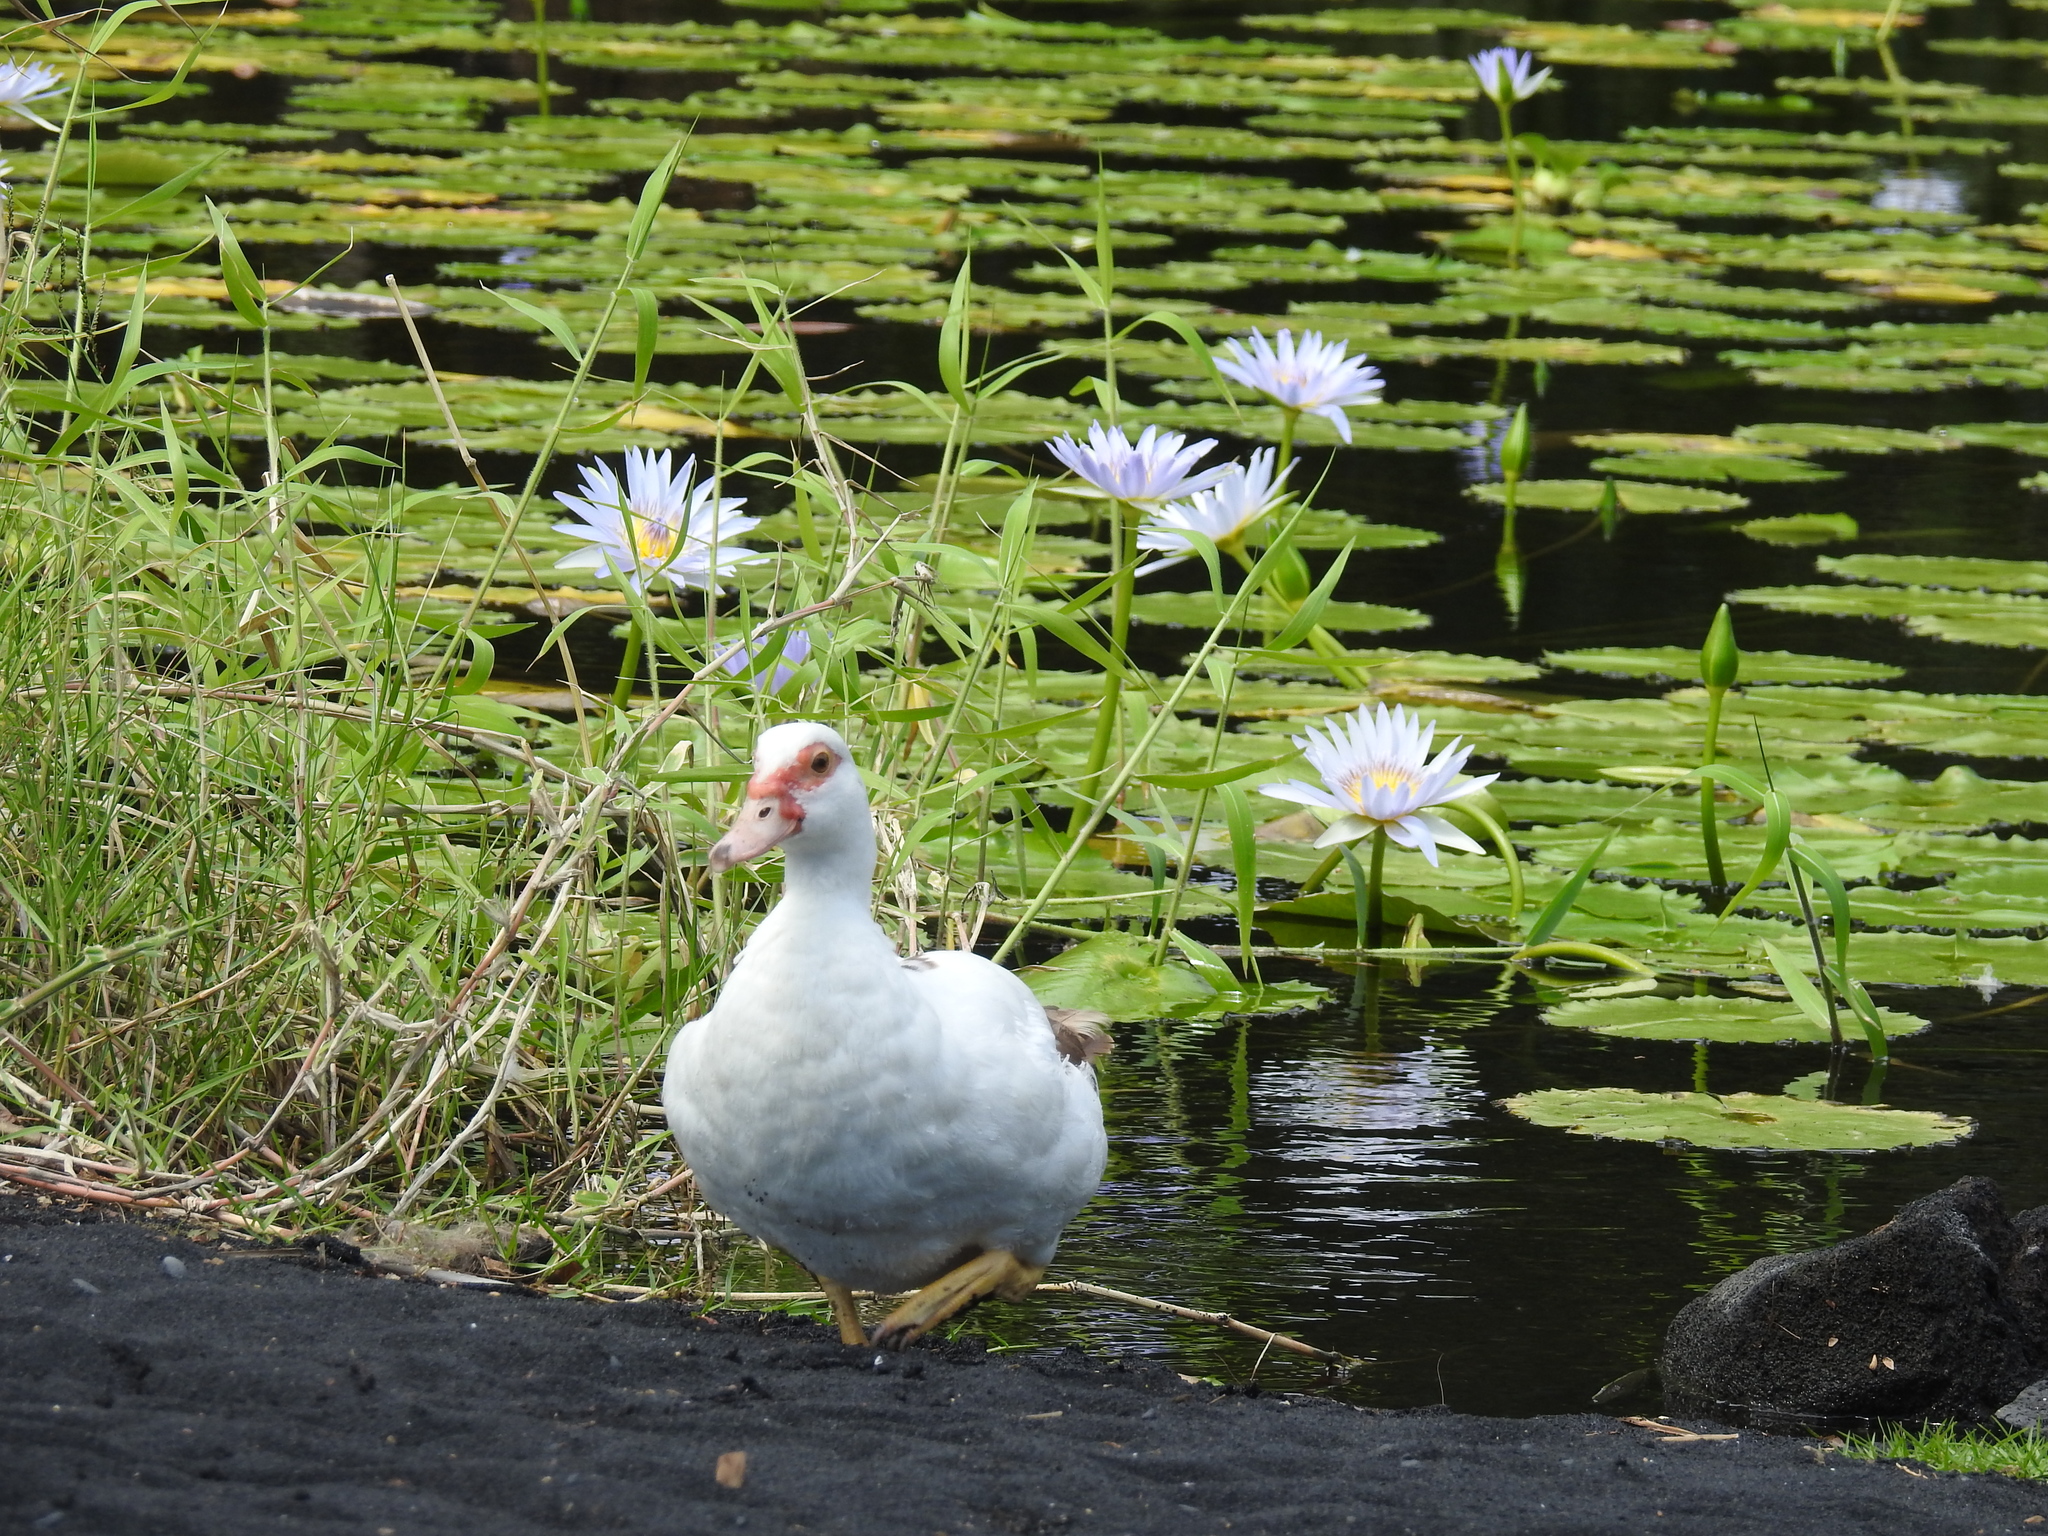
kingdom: Animalia
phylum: Chordata
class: Aves
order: Anseriformes
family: Anatidae
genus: Cairina
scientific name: Cairina moschata
